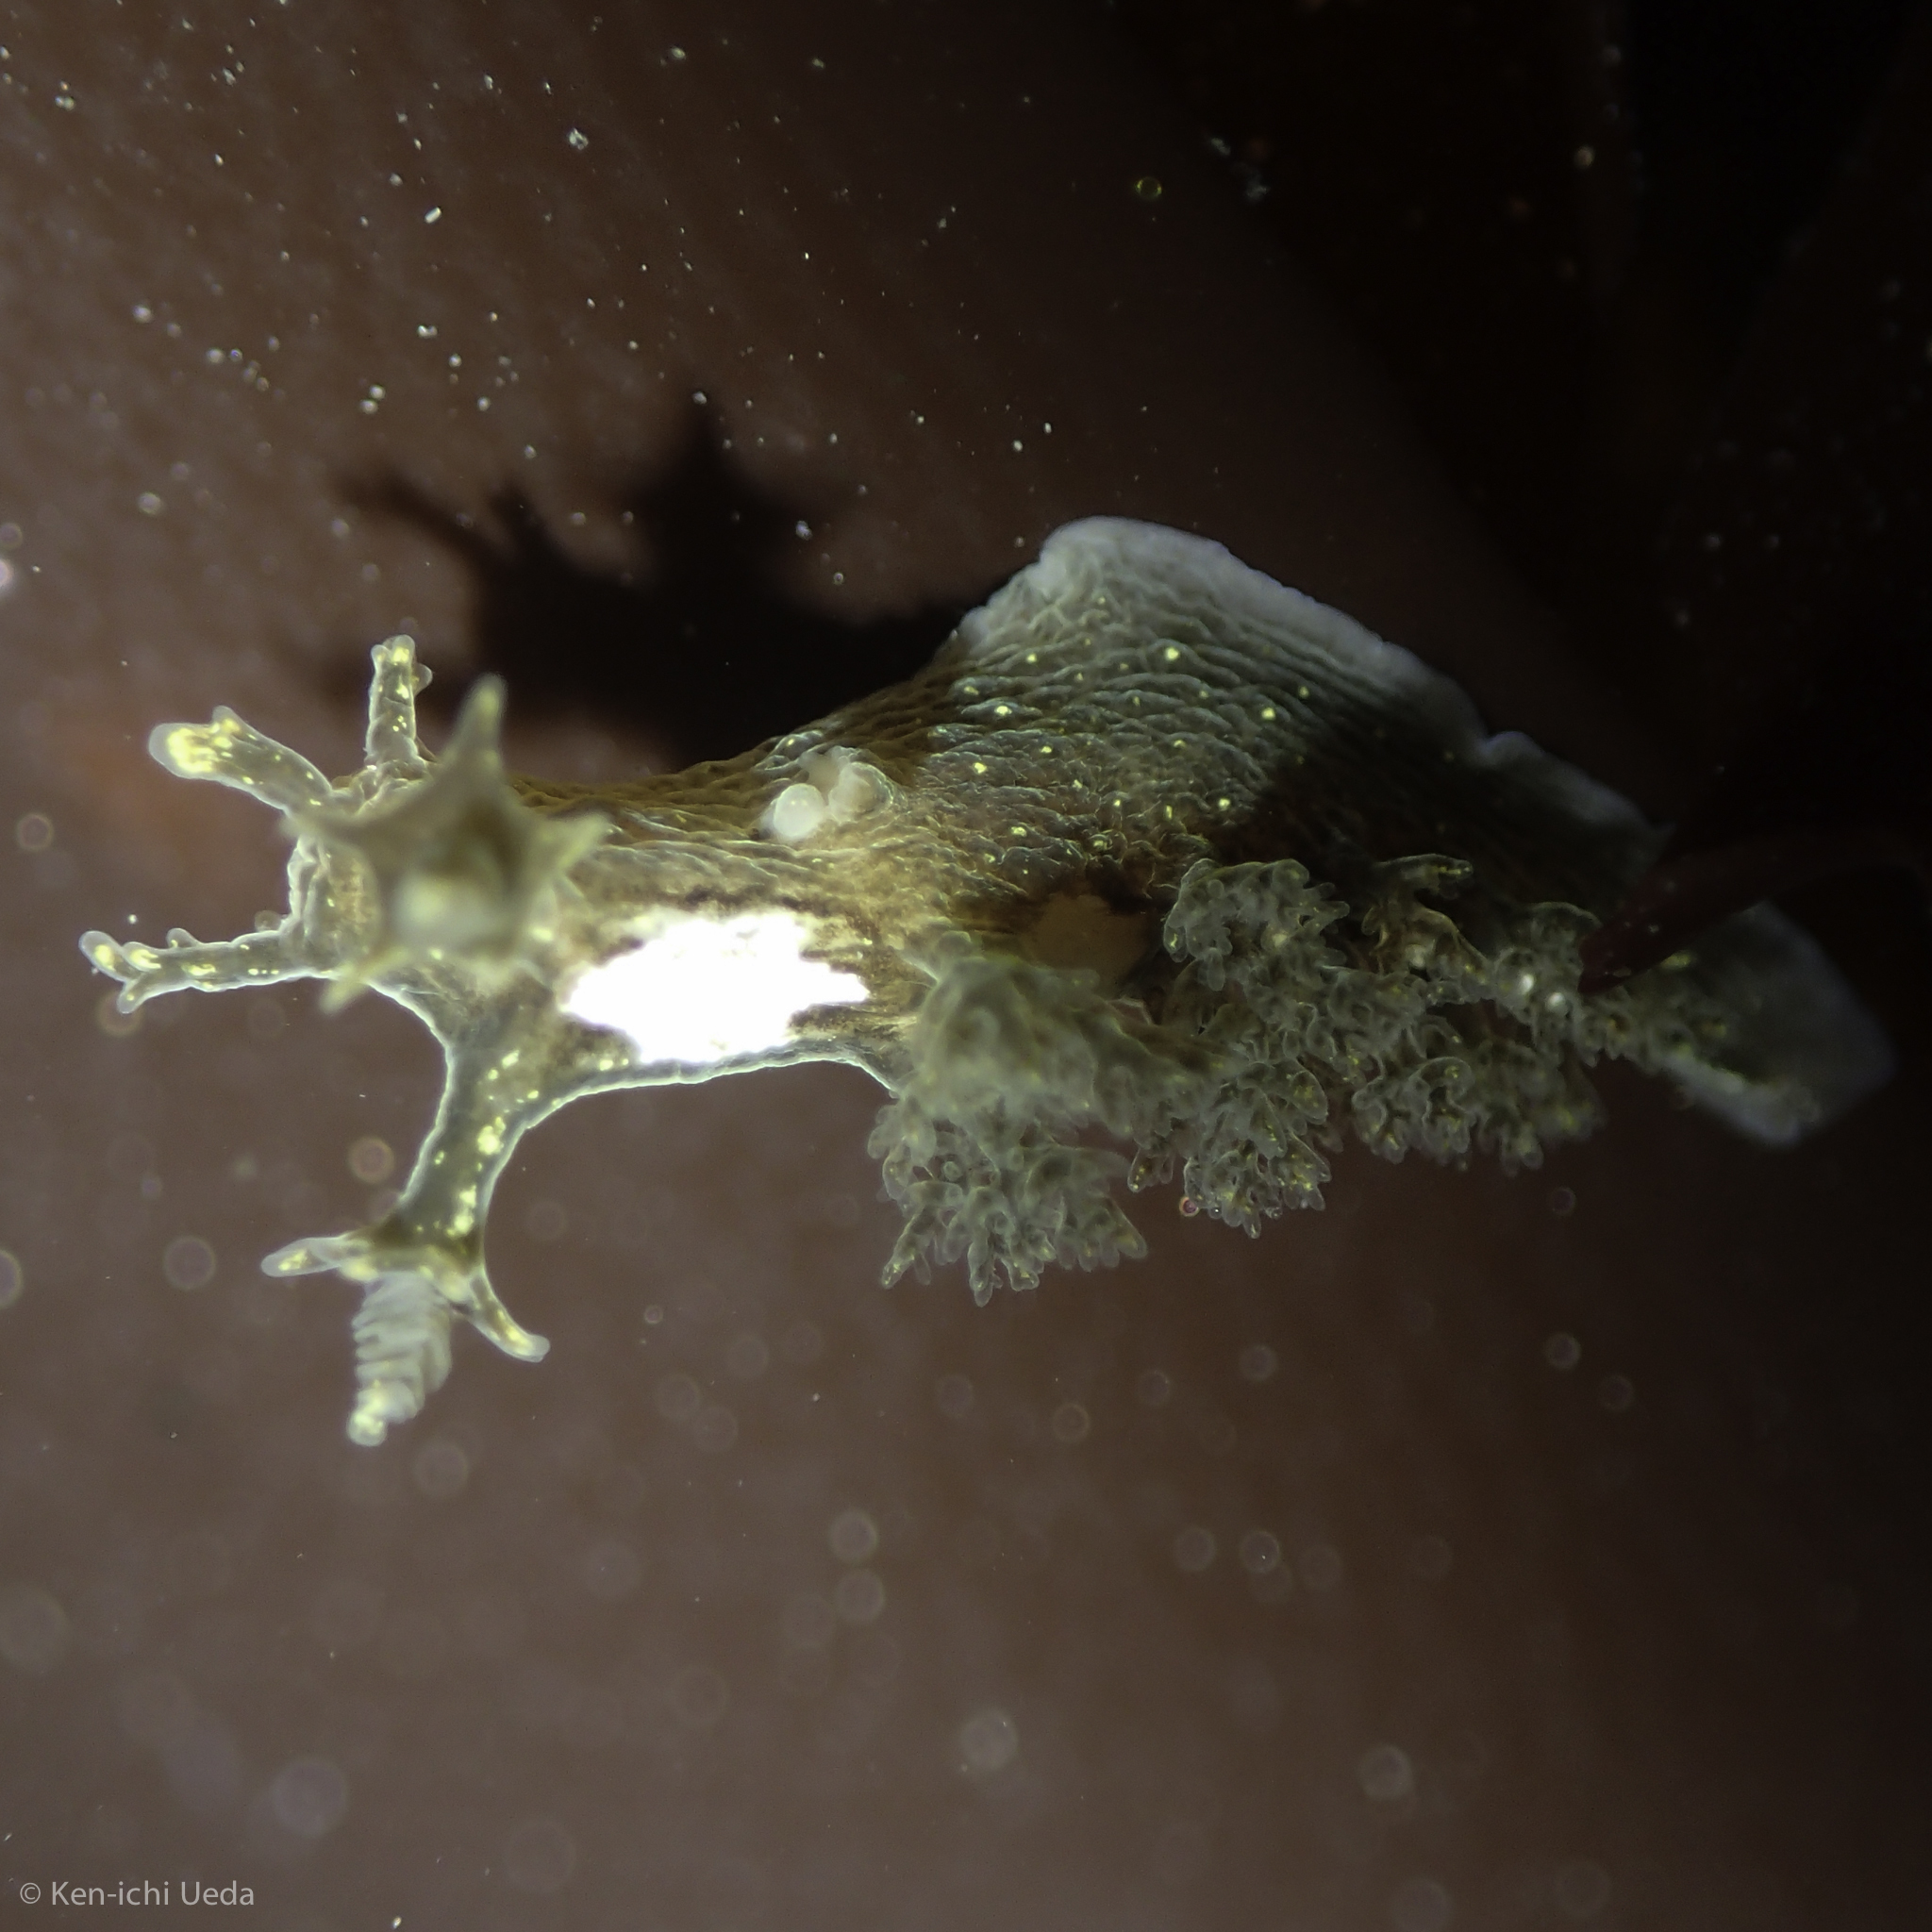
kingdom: Animalia
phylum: Mollusca
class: Gastropoda
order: Nudibranchia
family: Dendronotidae
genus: Dendronotus
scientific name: Dendronotus subramosus
